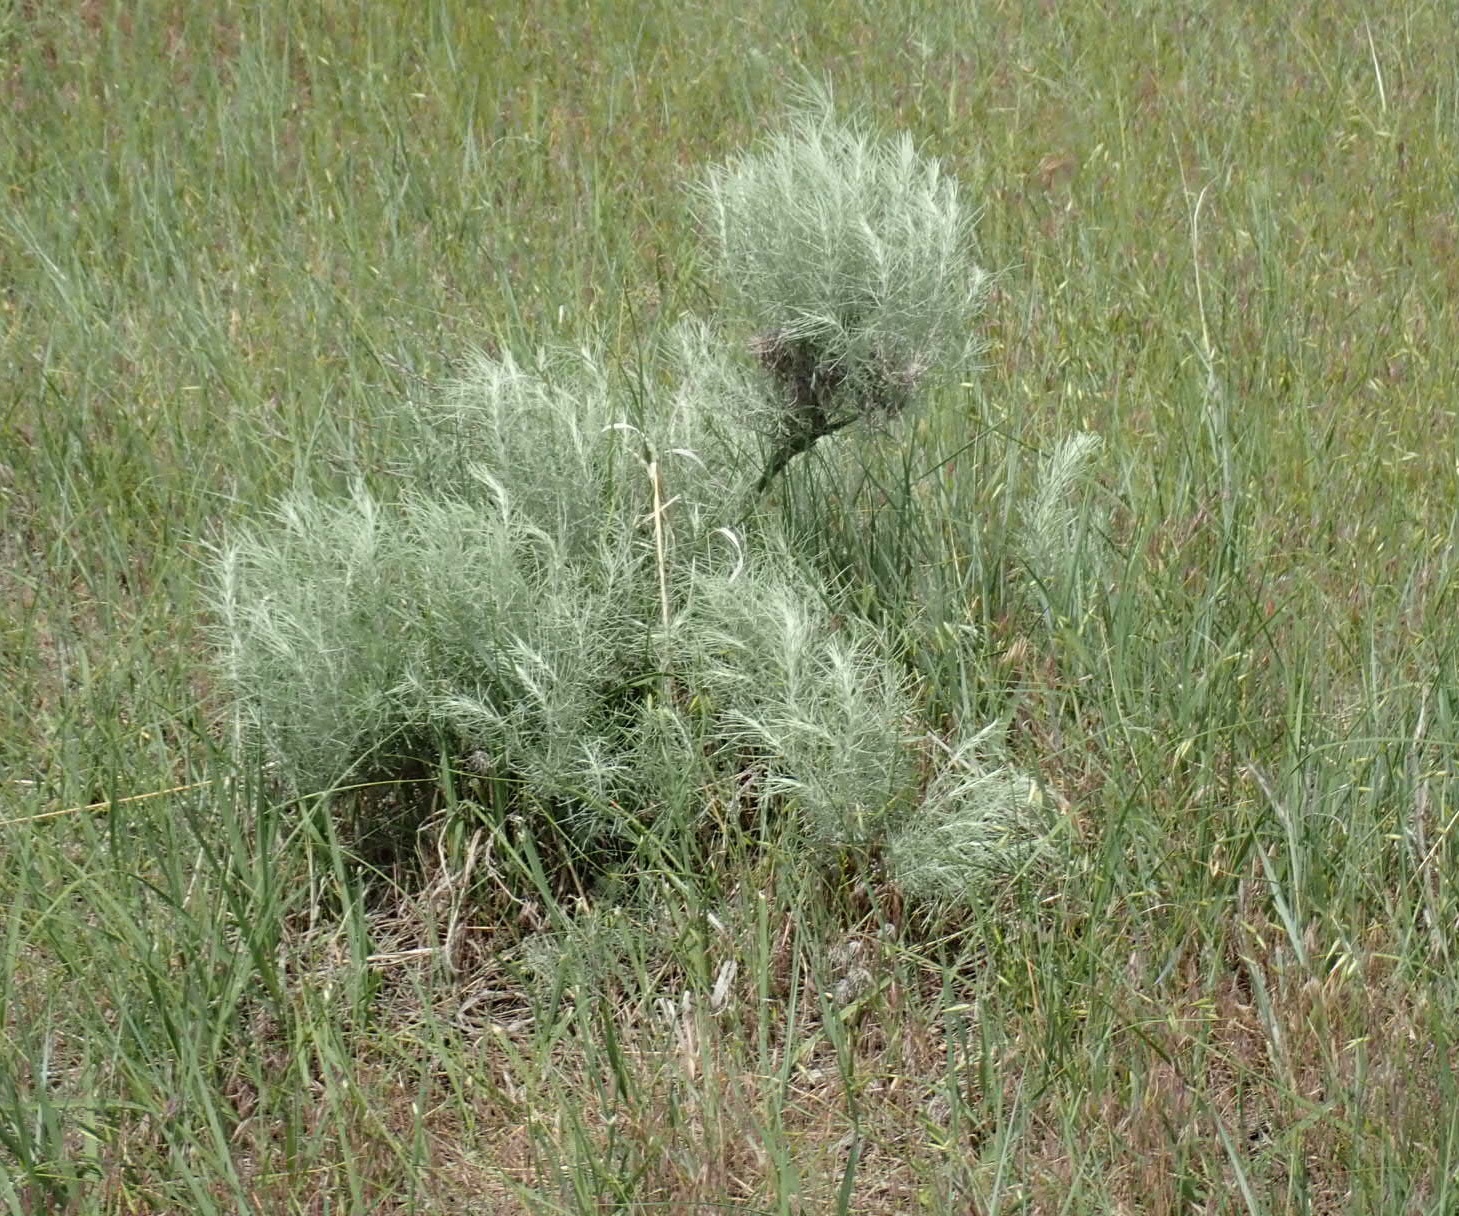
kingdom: Plantae
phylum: Tracheophyta
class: Magnoliopsida
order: Asterales
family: Asteraceae
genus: Artemisia
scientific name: Artemisia filifolia
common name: Sand-sage
